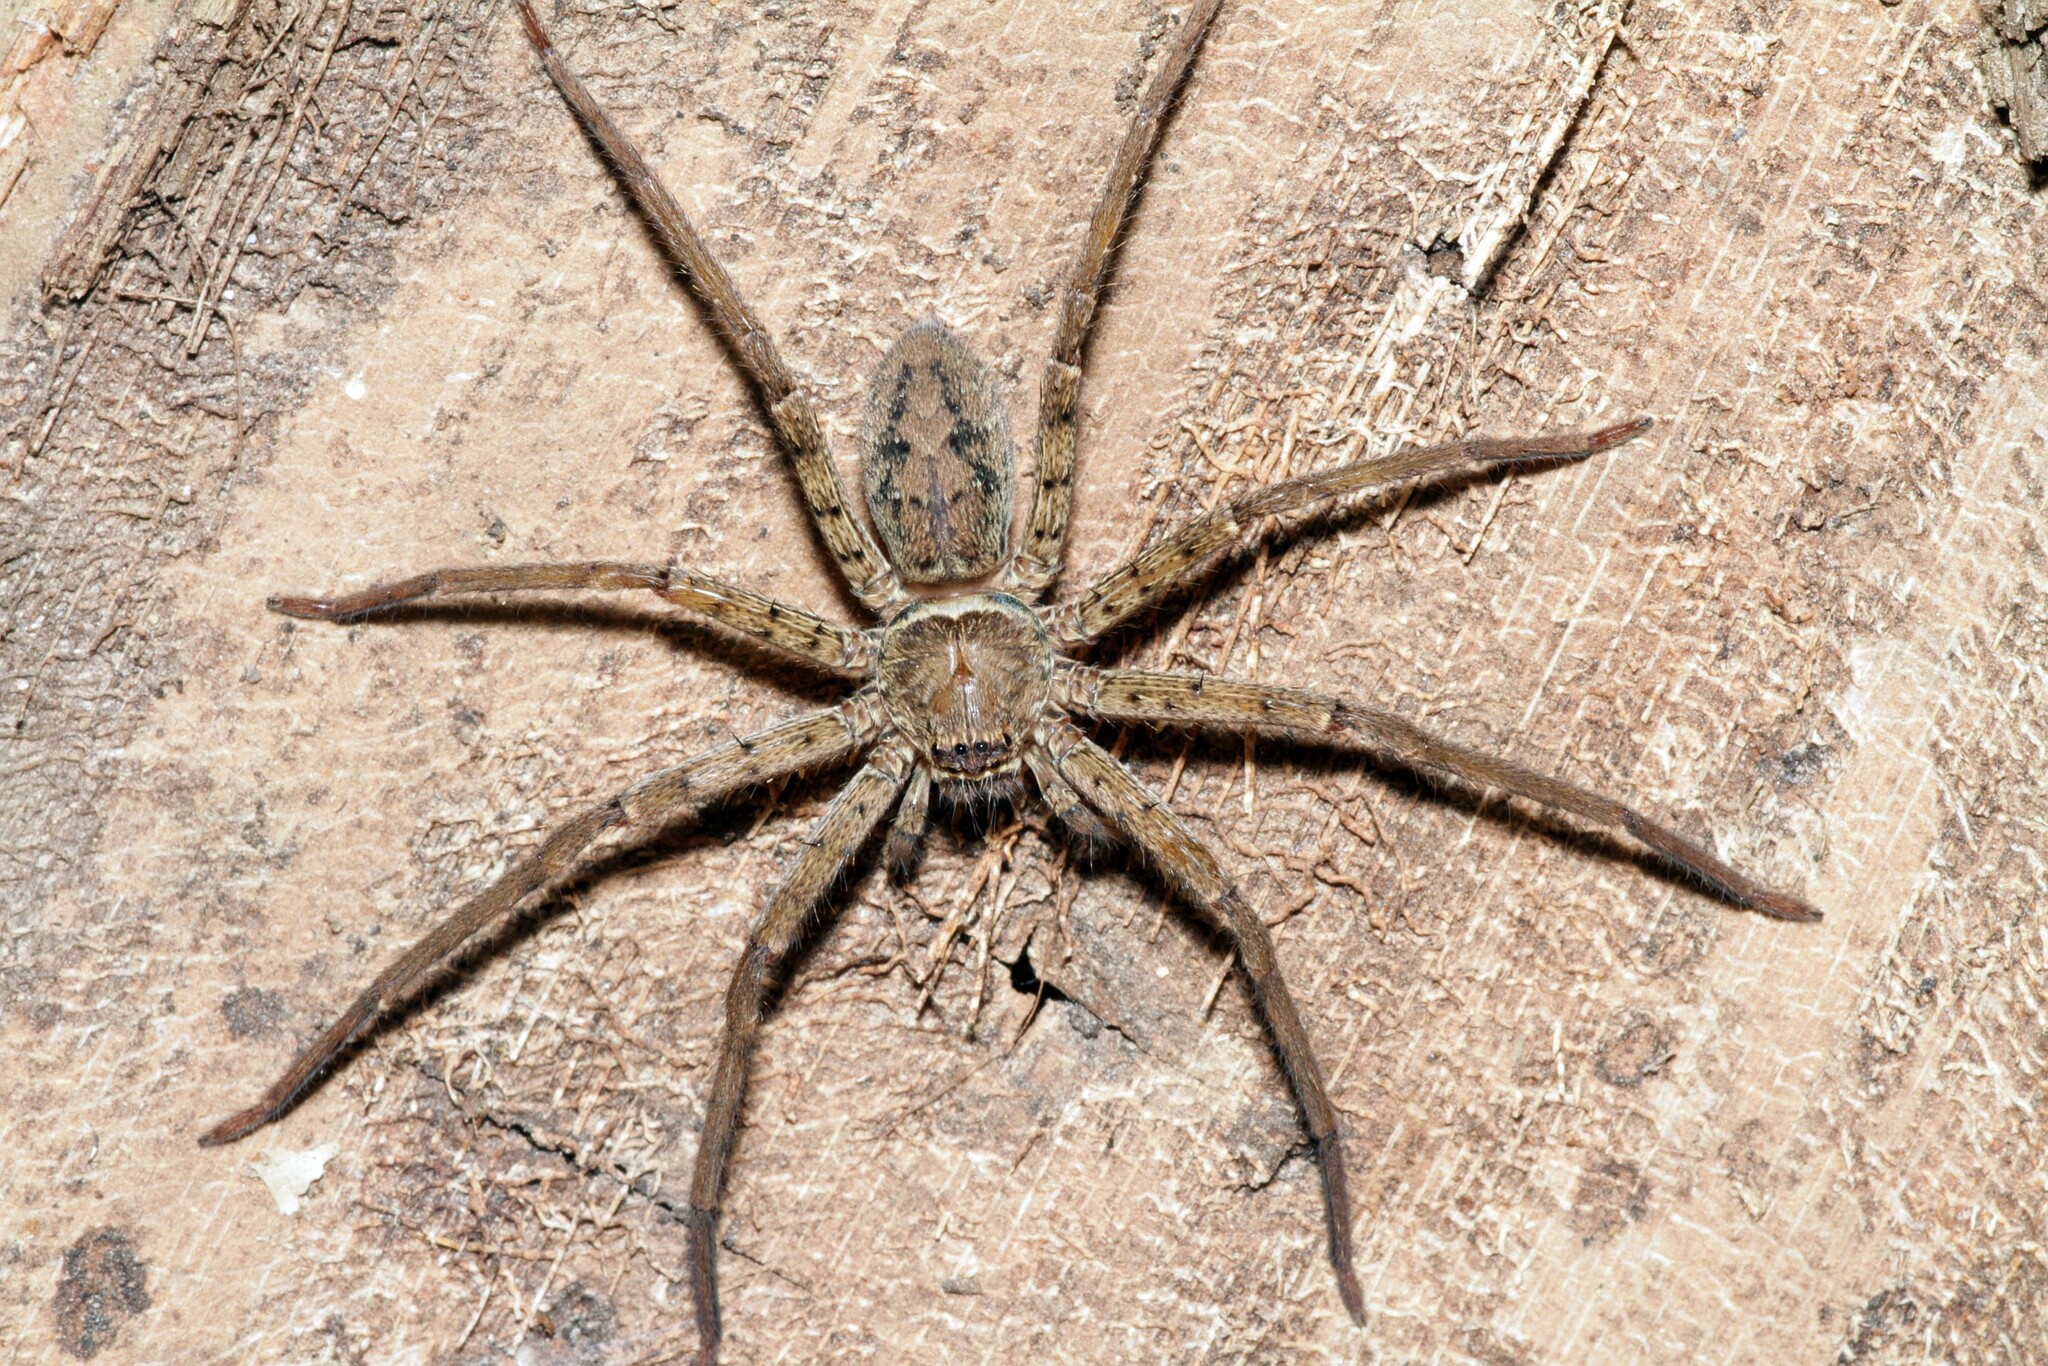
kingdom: Animalia
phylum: Arthropoda
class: Arachnida
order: Araneae
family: Sparassidae
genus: Heteropoda
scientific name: Heteropoda venatoria
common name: Huntsman spider
